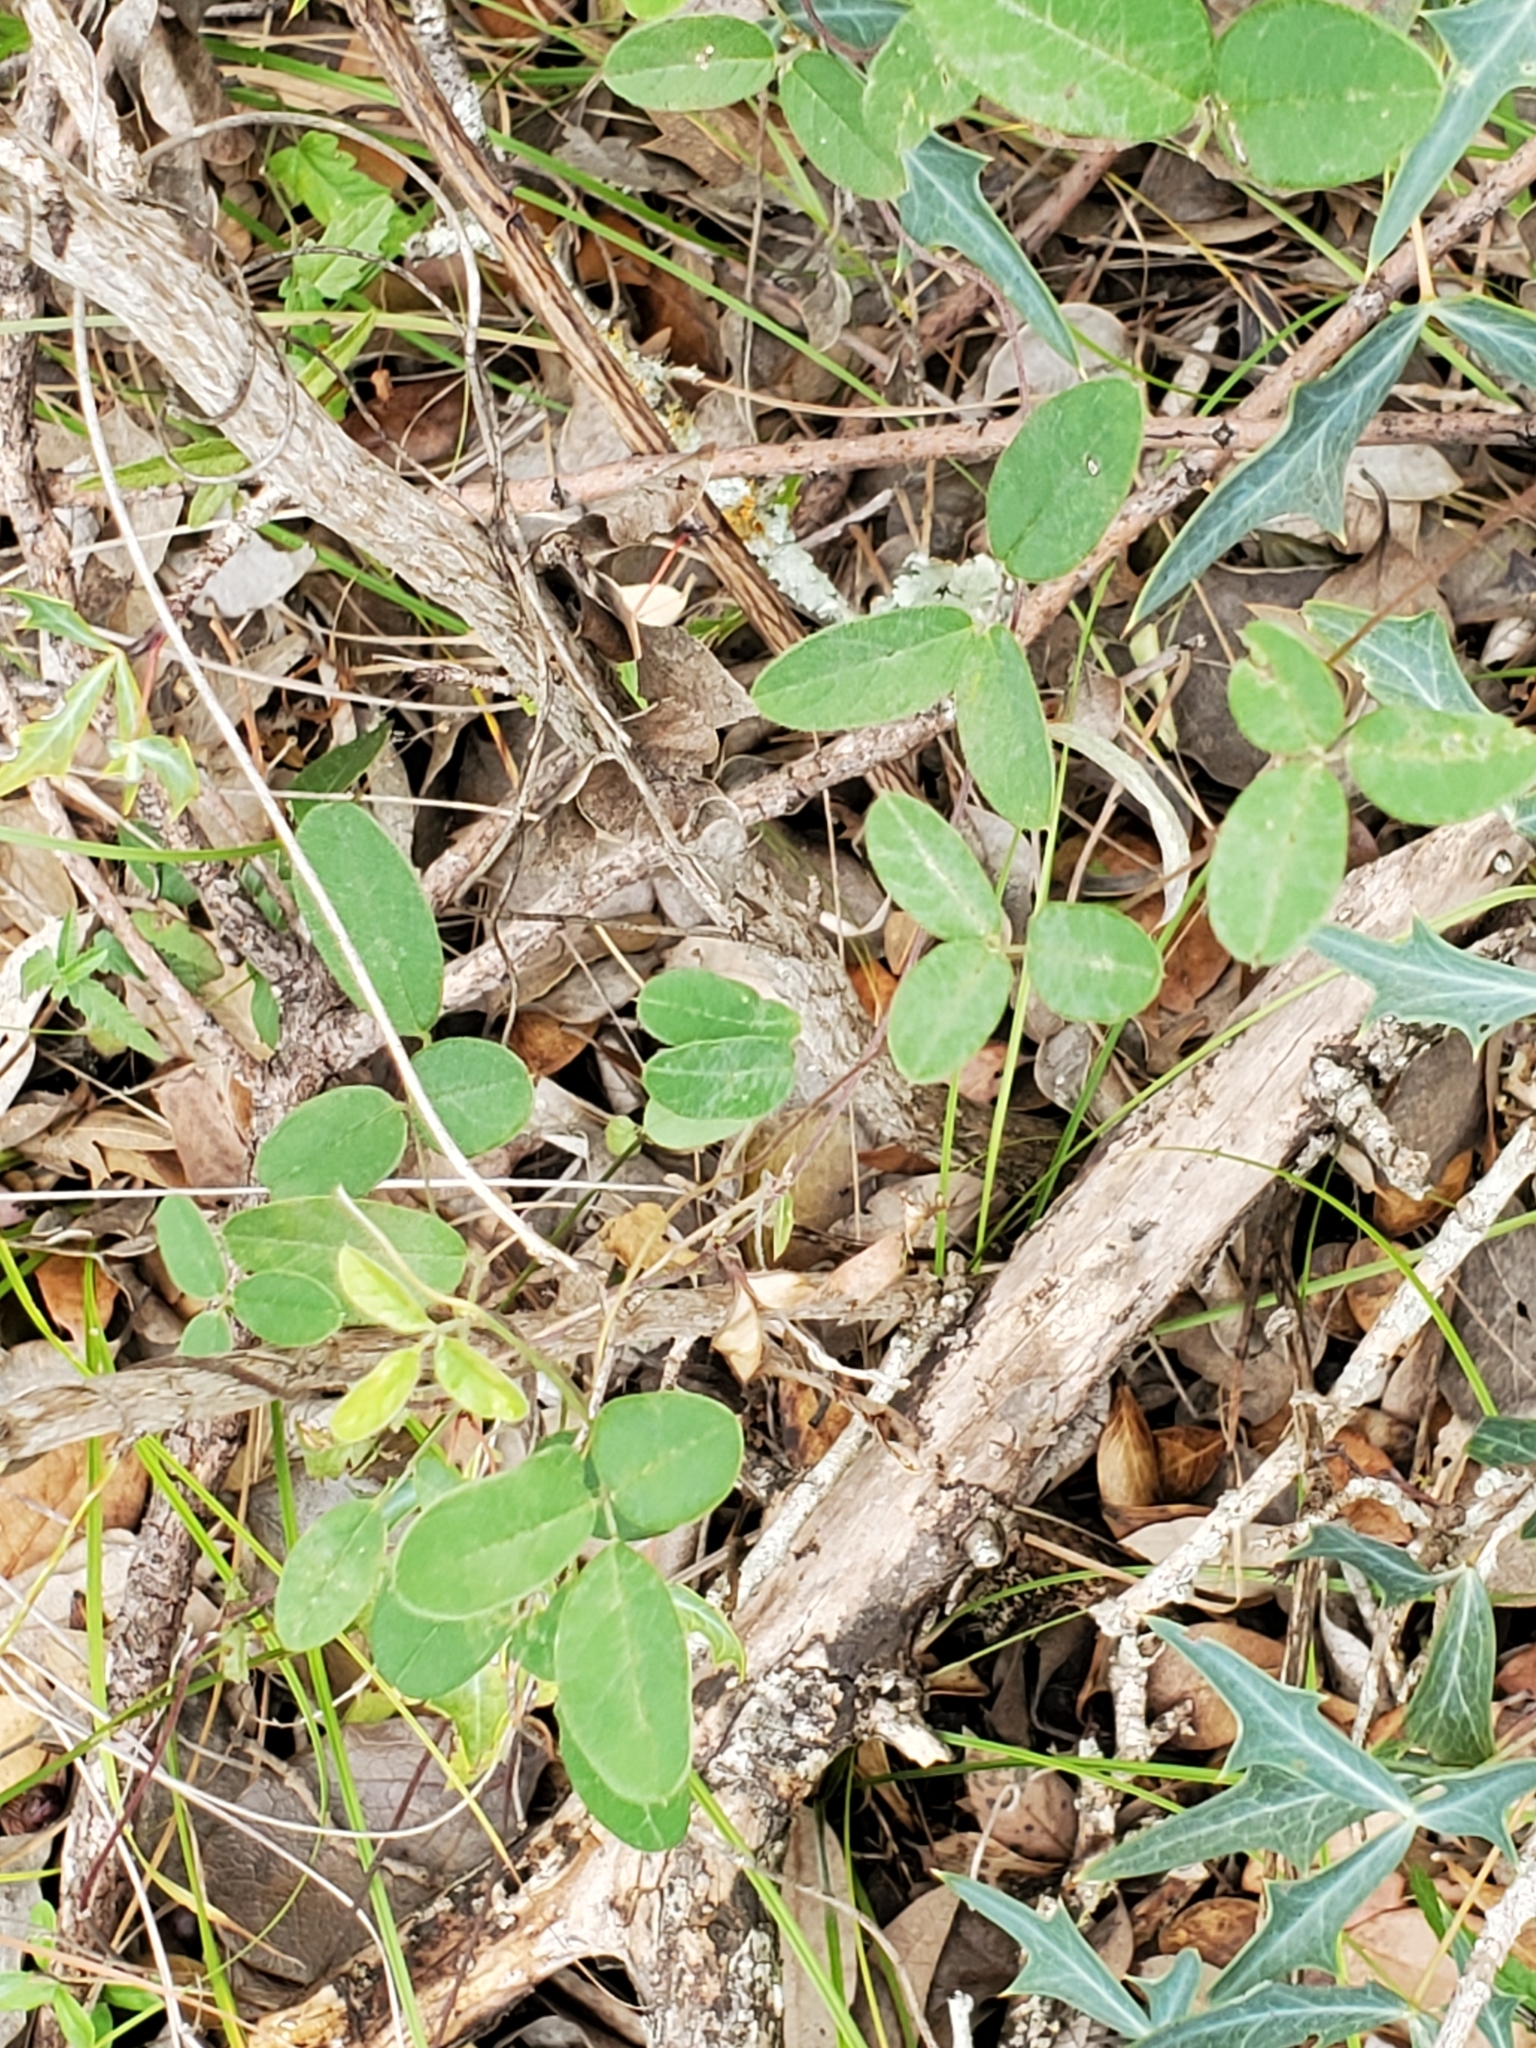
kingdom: Plantae
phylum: Tracheophyta
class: Magnoliopsida
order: Fabales
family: Fabaceae
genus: Galactia
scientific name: Galactia regularis
